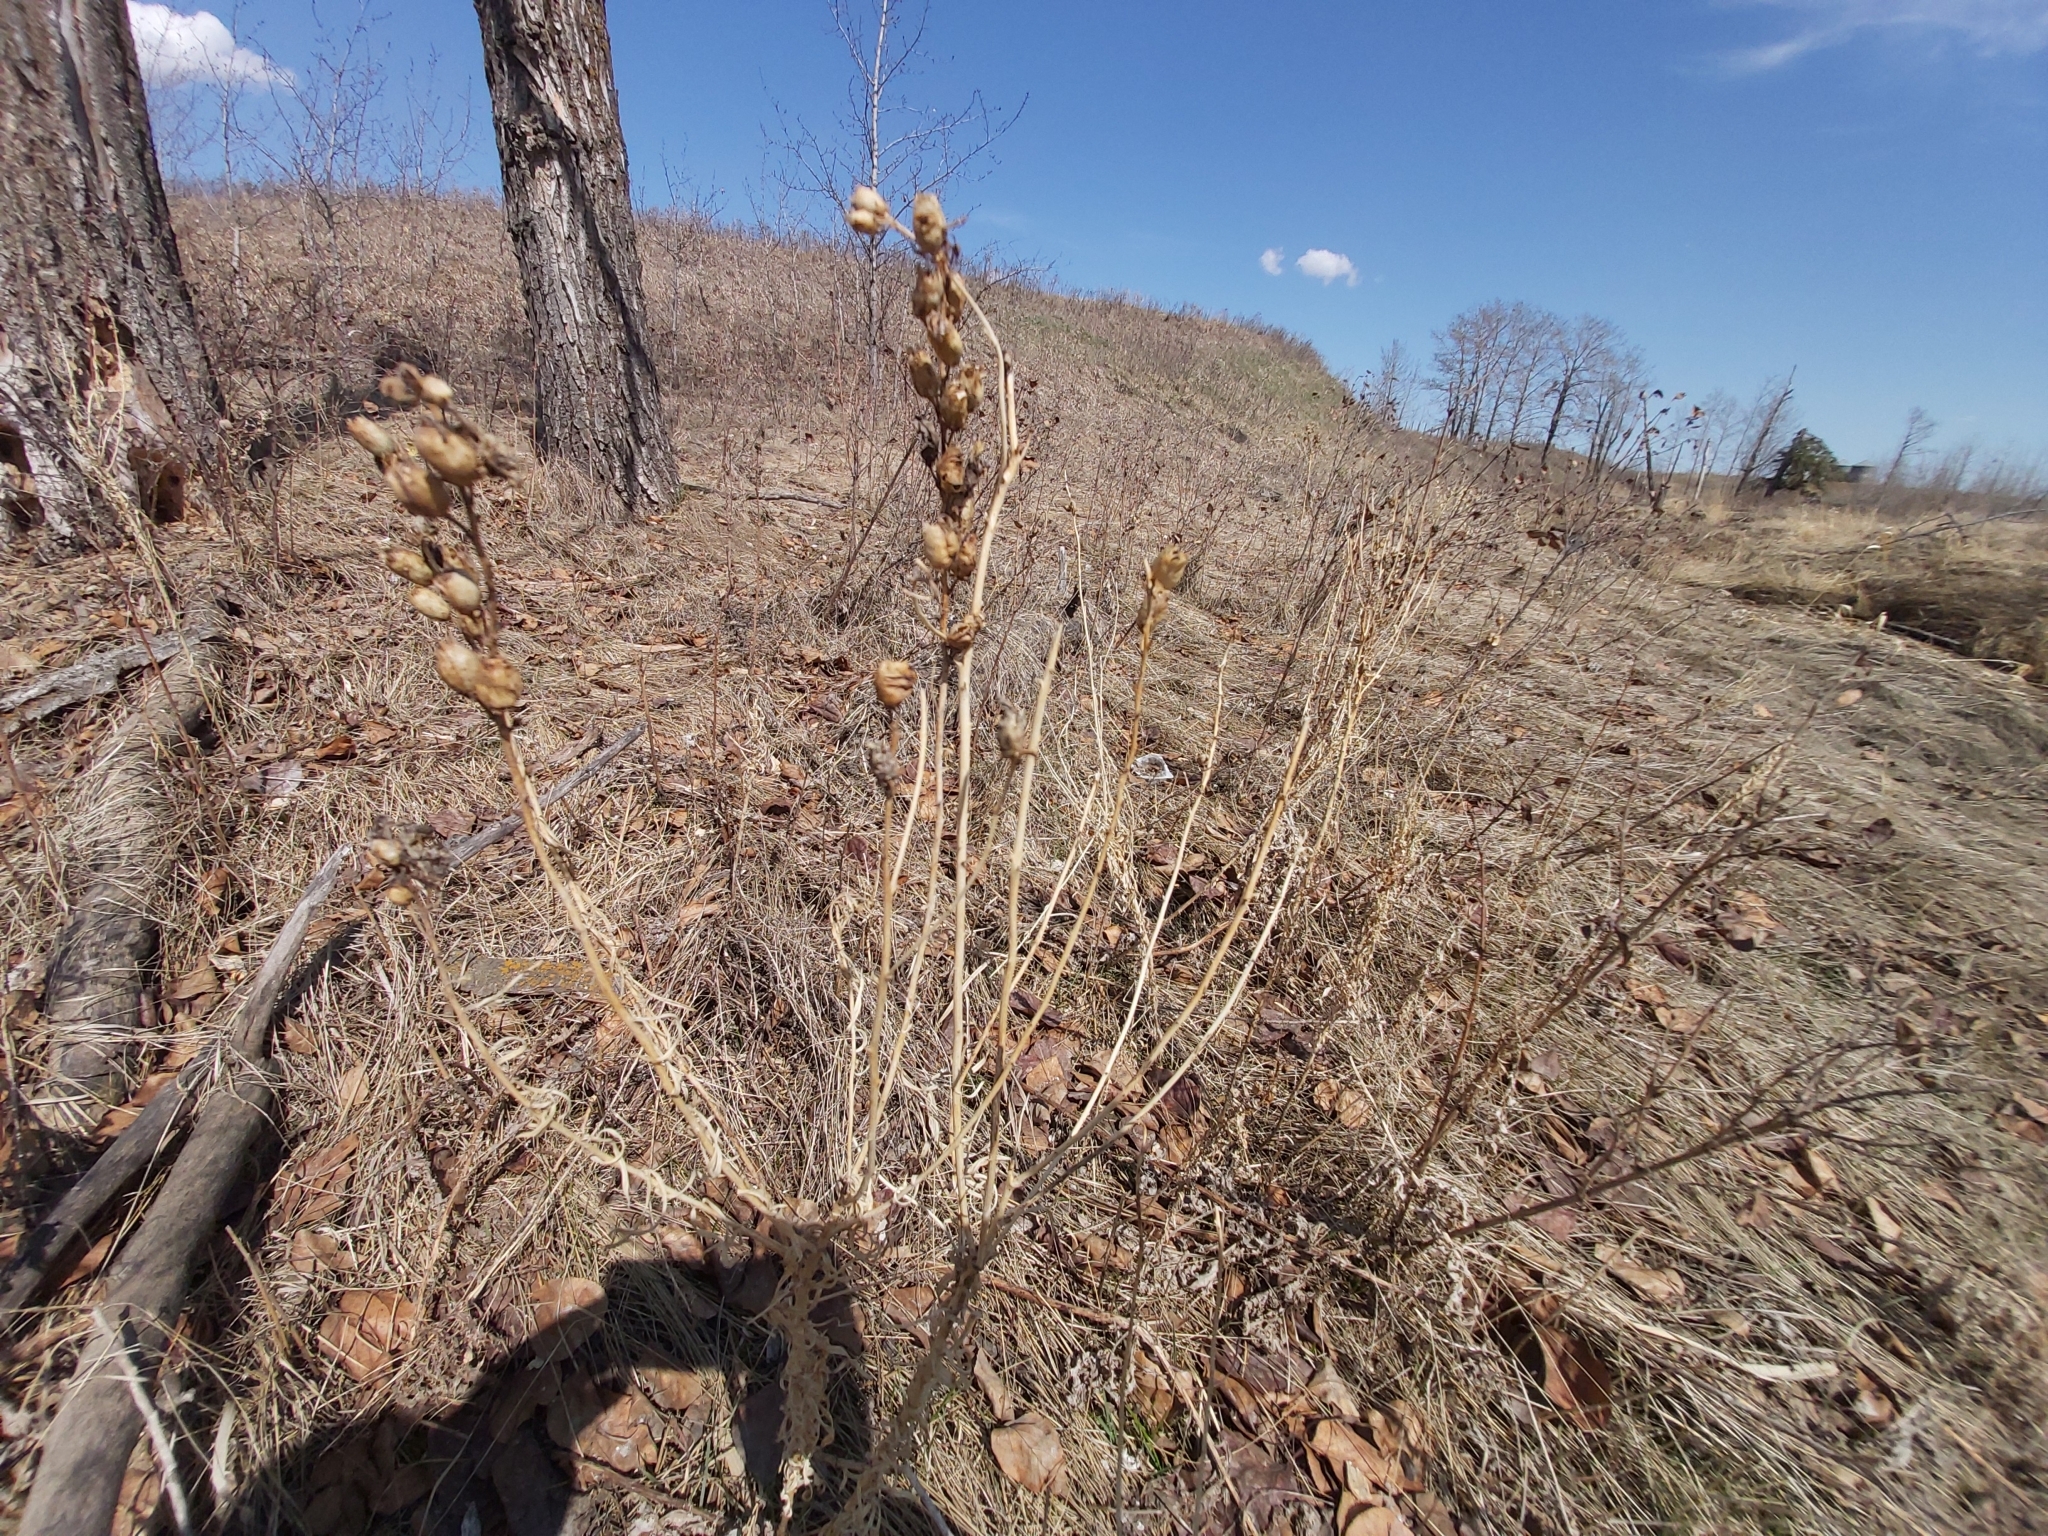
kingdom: Plantae
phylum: Tracheophyta
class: Magnoliopsida
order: Lamiales
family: Plantaginaceae
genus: Linaria
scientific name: Linaria vulgaris
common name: Butter and eggs
